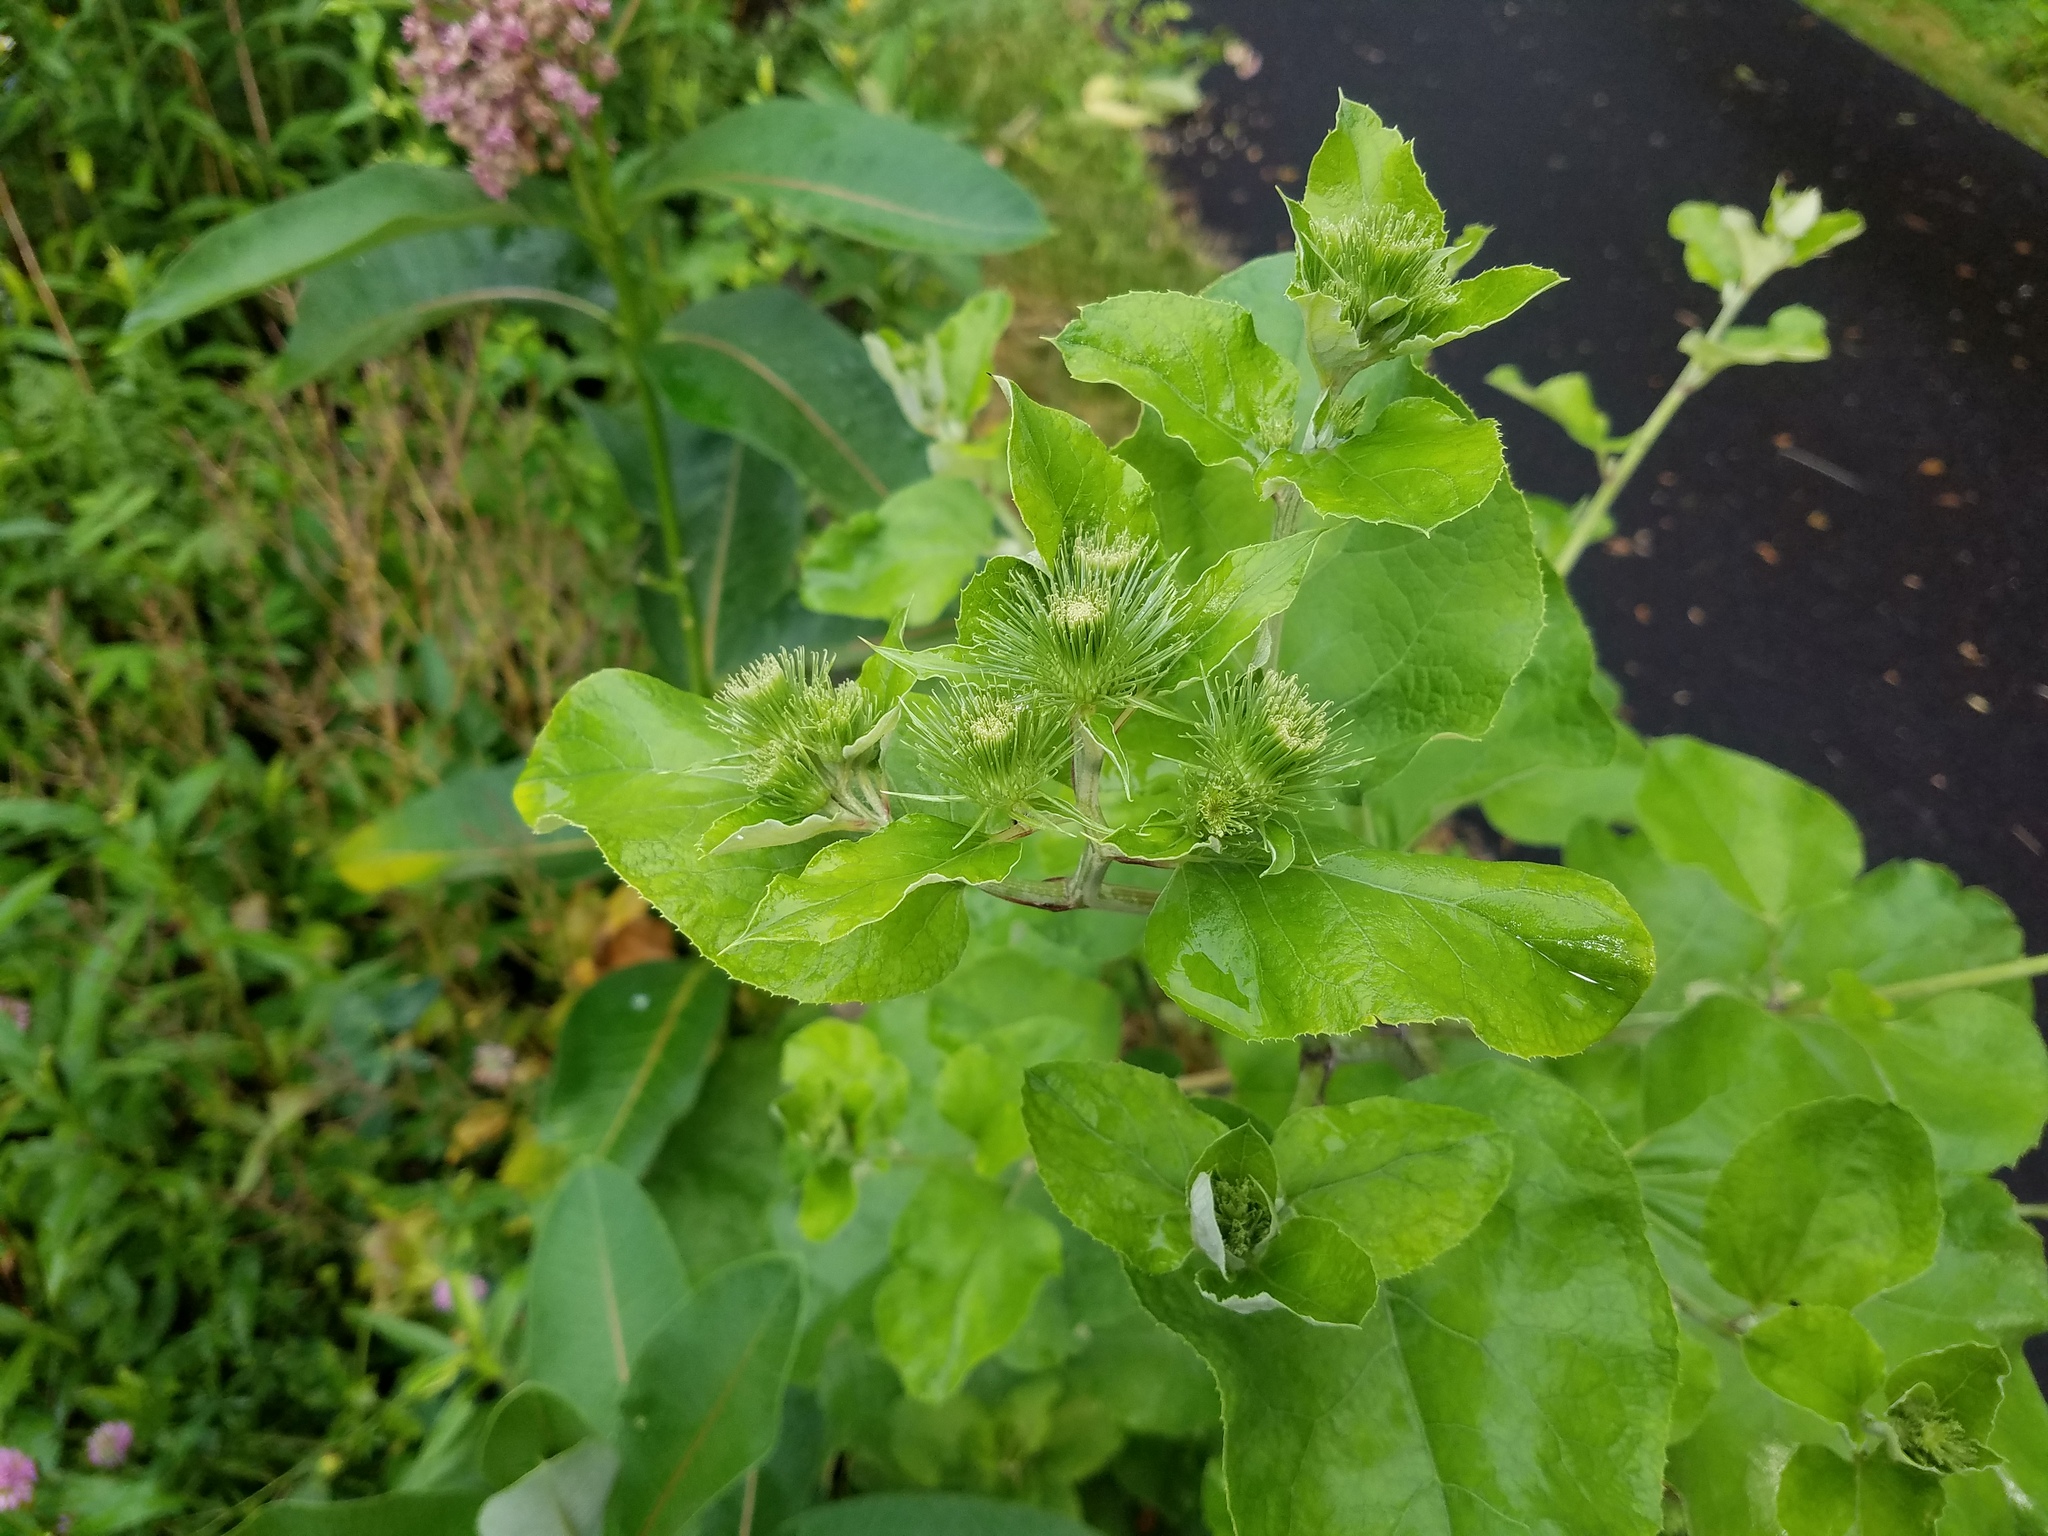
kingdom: Plantae
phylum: Tracheophyta
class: Magnoliopsida
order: Asterales
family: Asteraceae
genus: Arctium
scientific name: Arctium lappa
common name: Greater burdock
